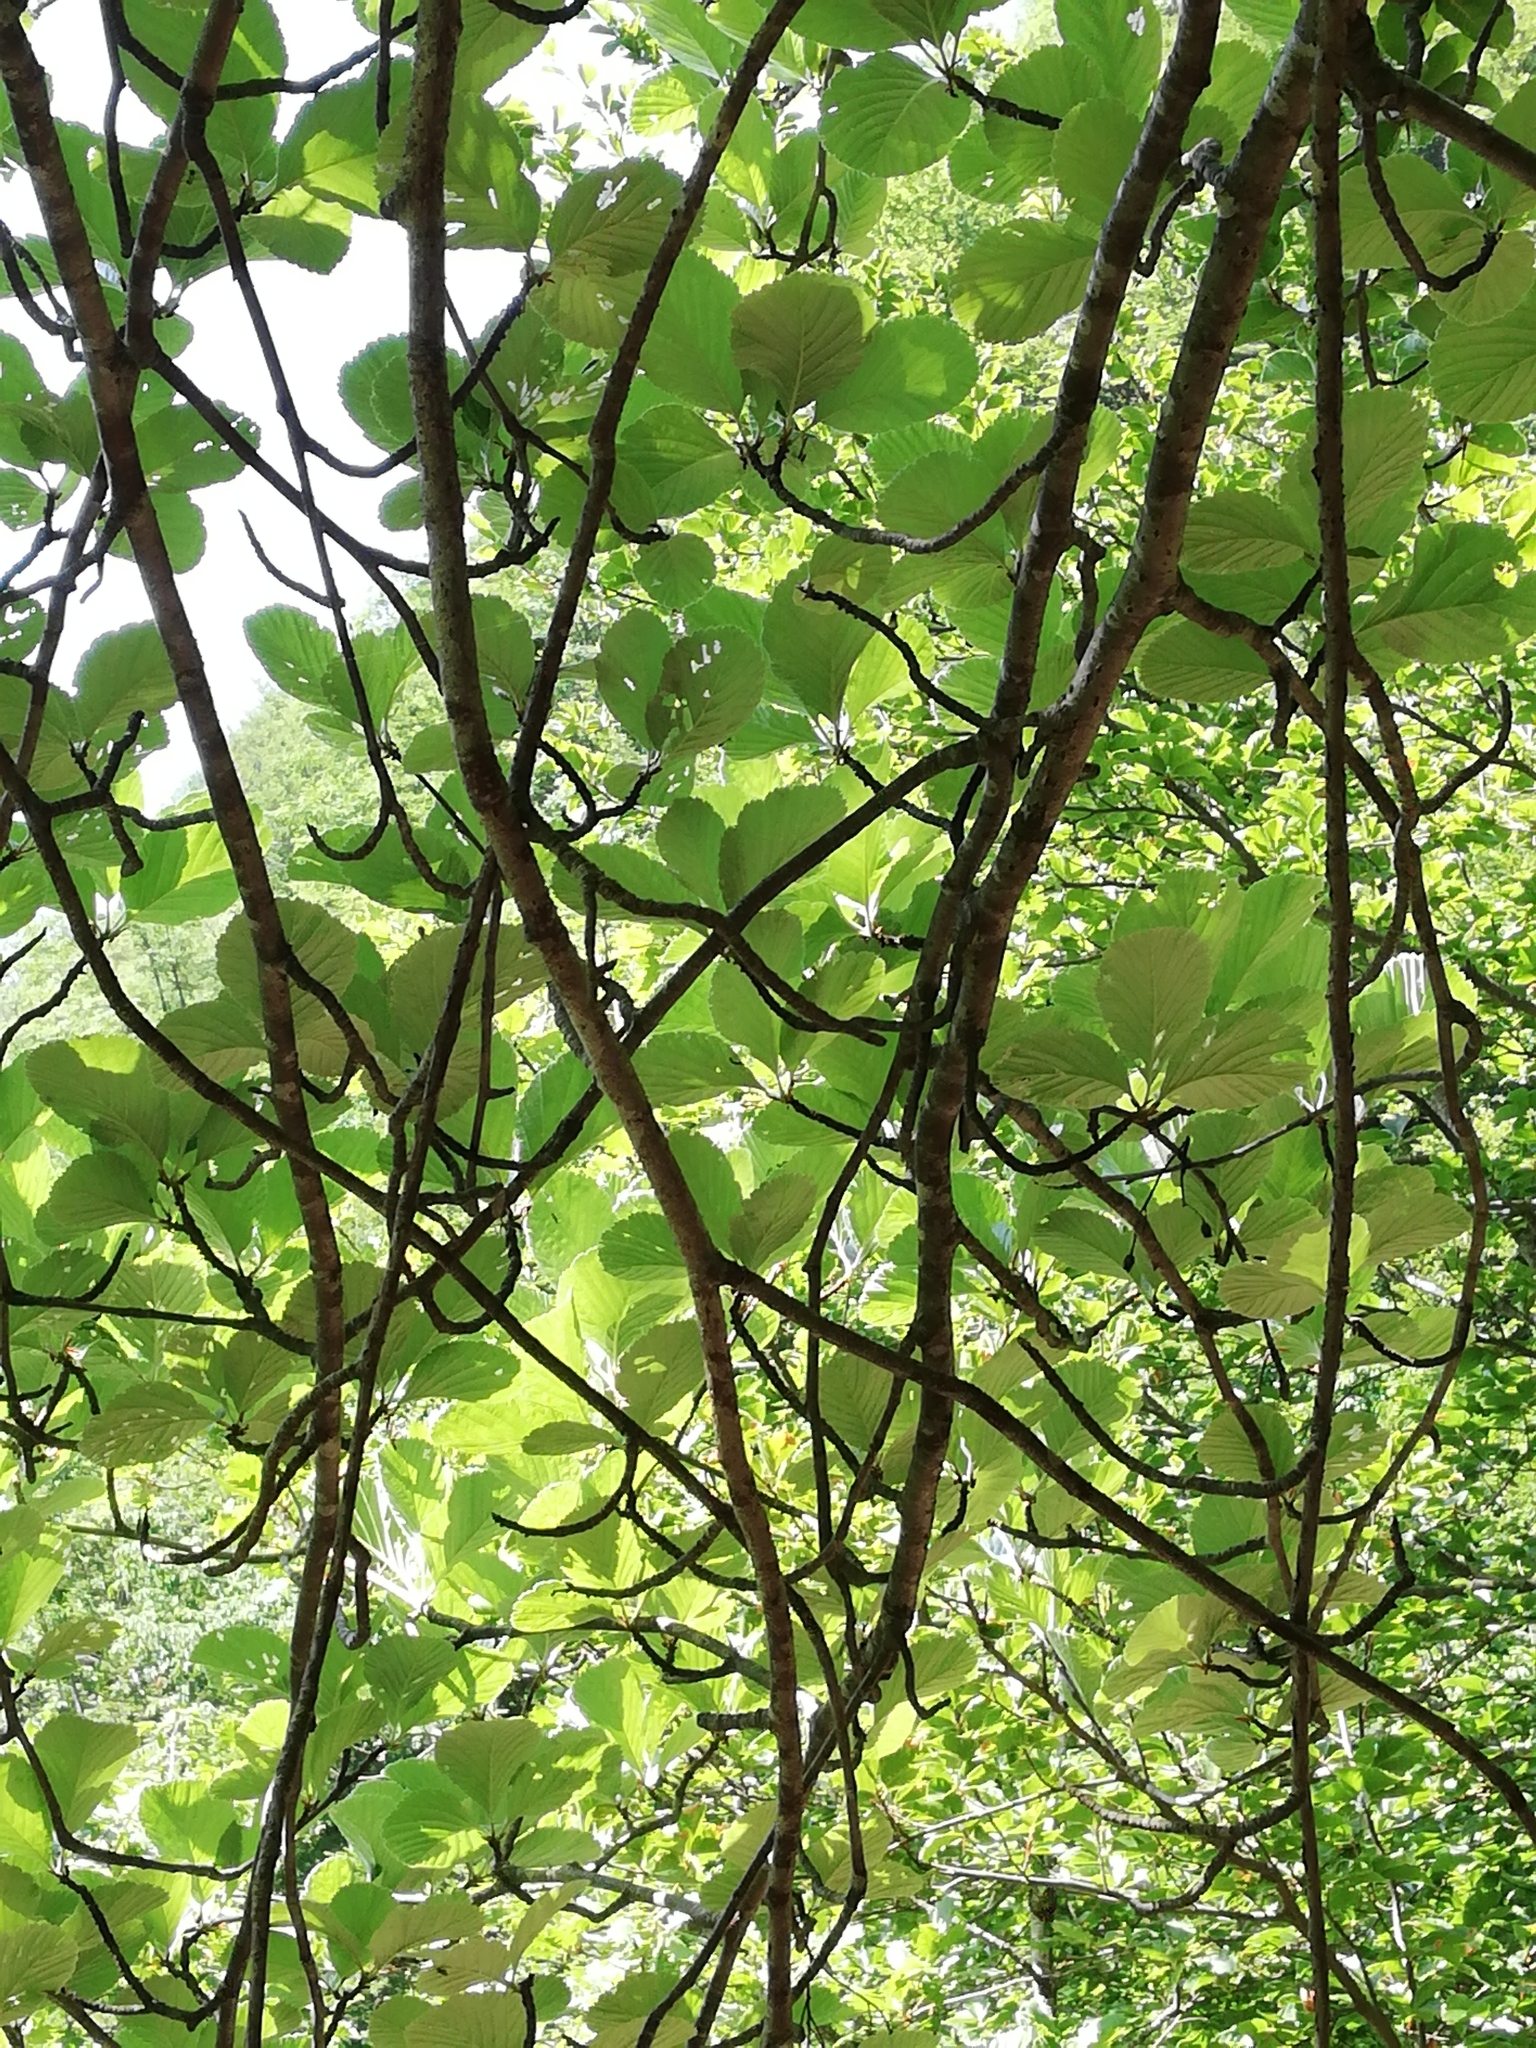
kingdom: Plantae
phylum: Tracheophyta
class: Magnoliopsida
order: Rosales
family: Rosaceae
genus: Aria
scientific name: Aria edulis
